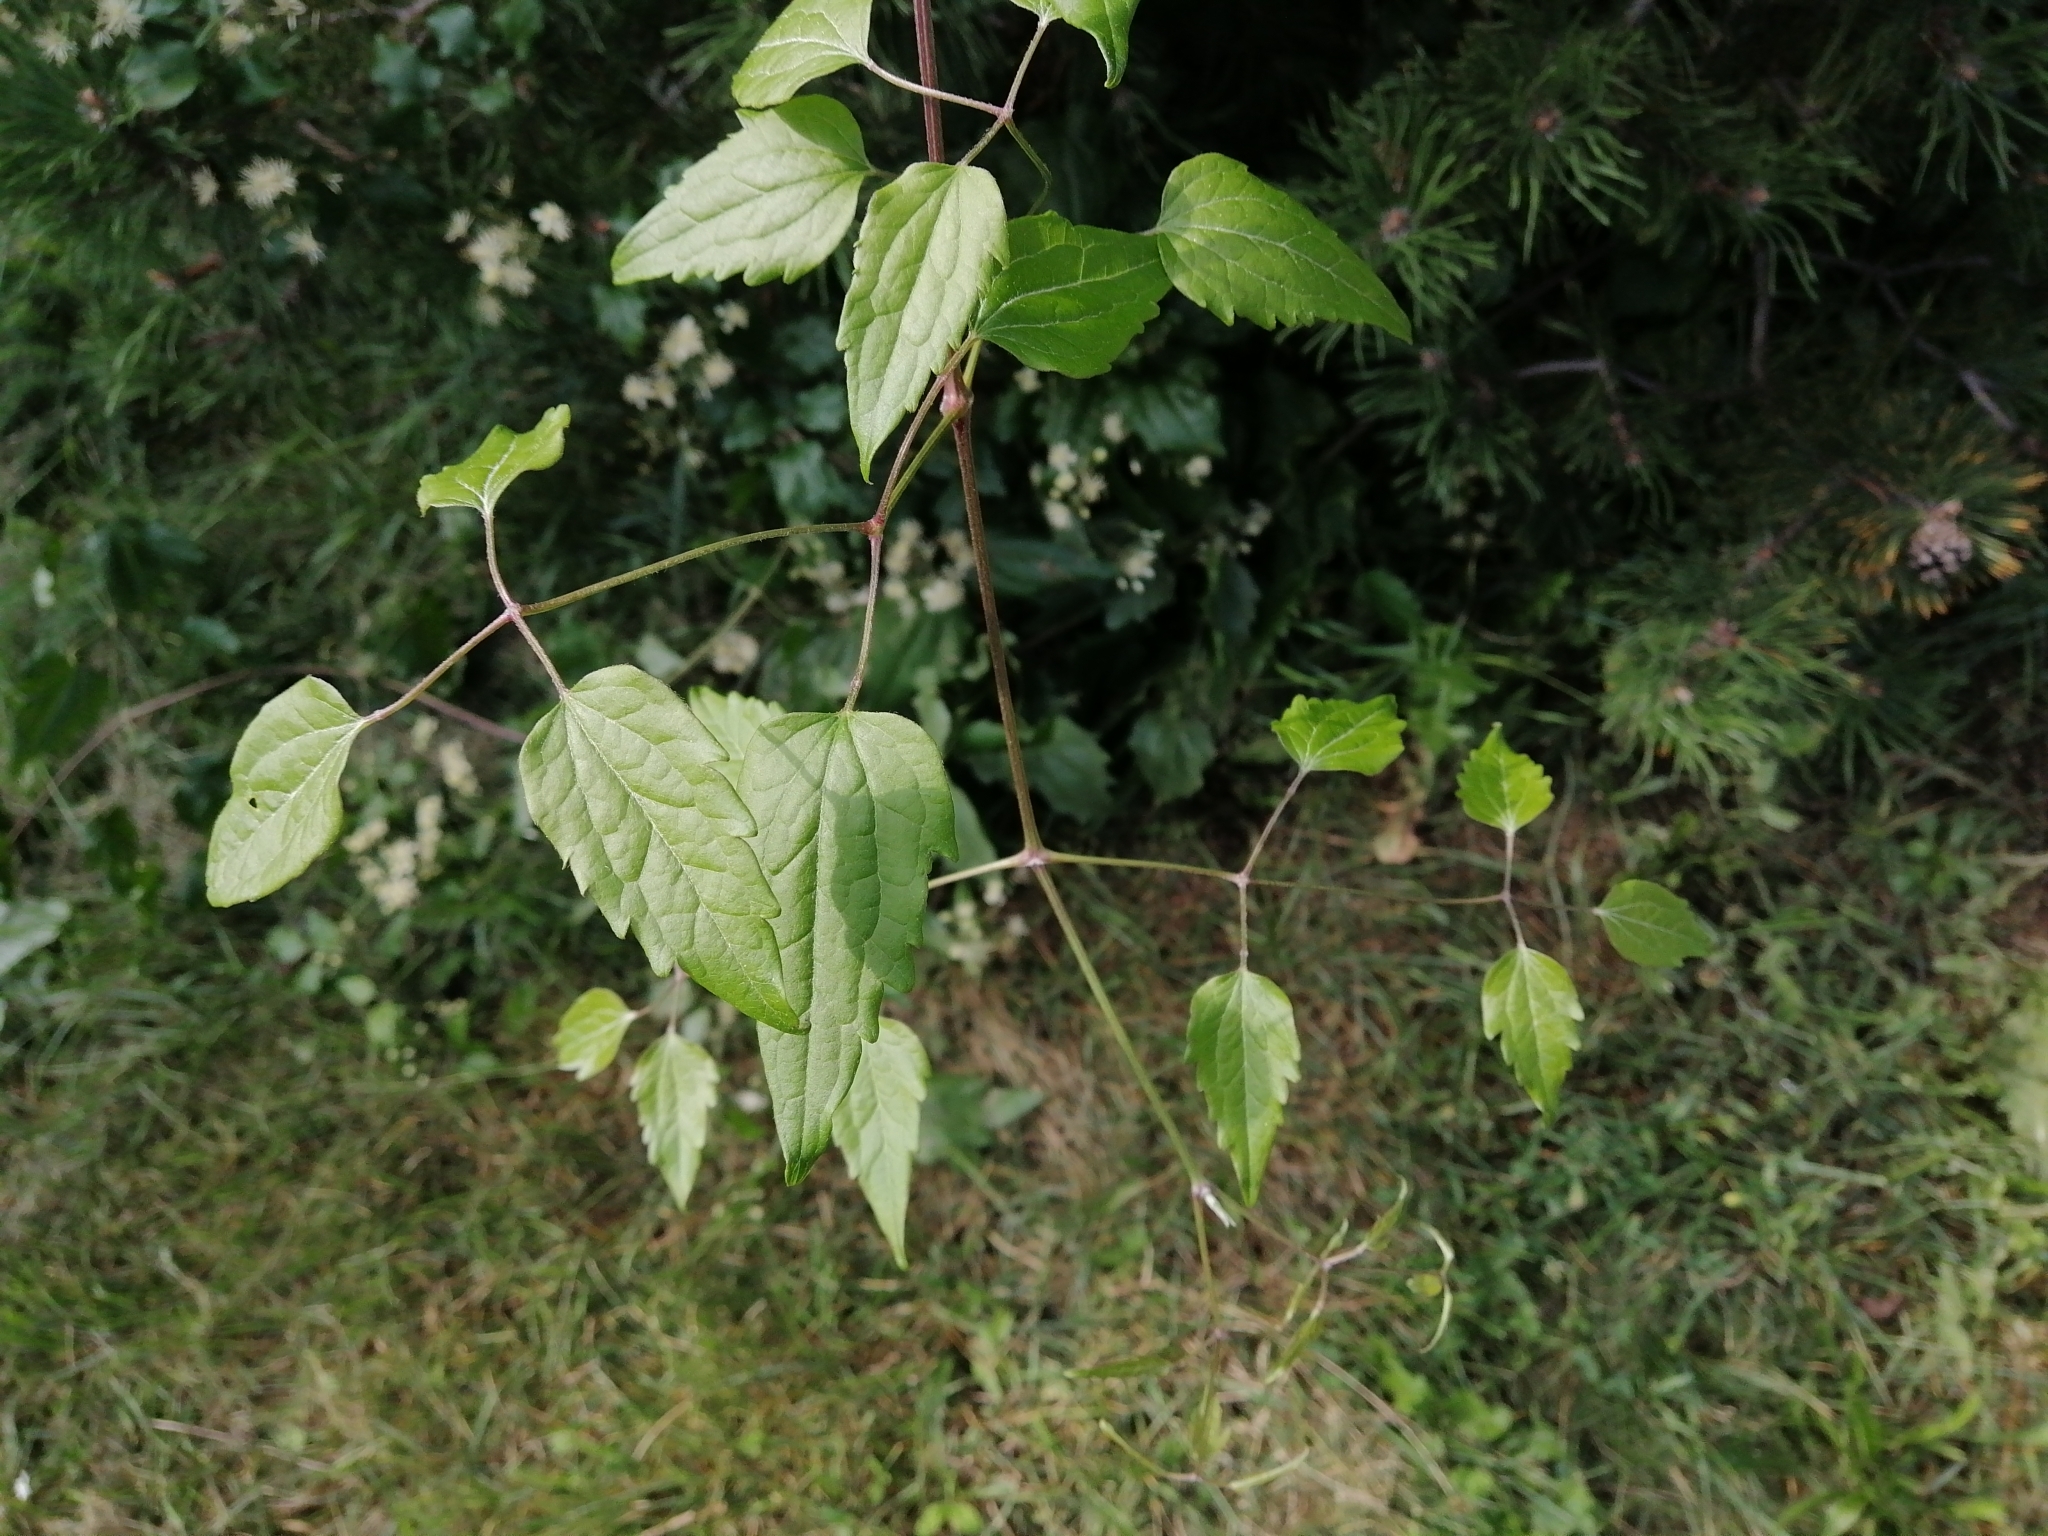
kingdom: Plantae
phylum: Tracheophyta
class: Magnoliopsida
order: Ranunculales
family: Ranunculaceae
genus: Clematis
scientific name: Clematis vitalba
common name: Evergreen clematis
